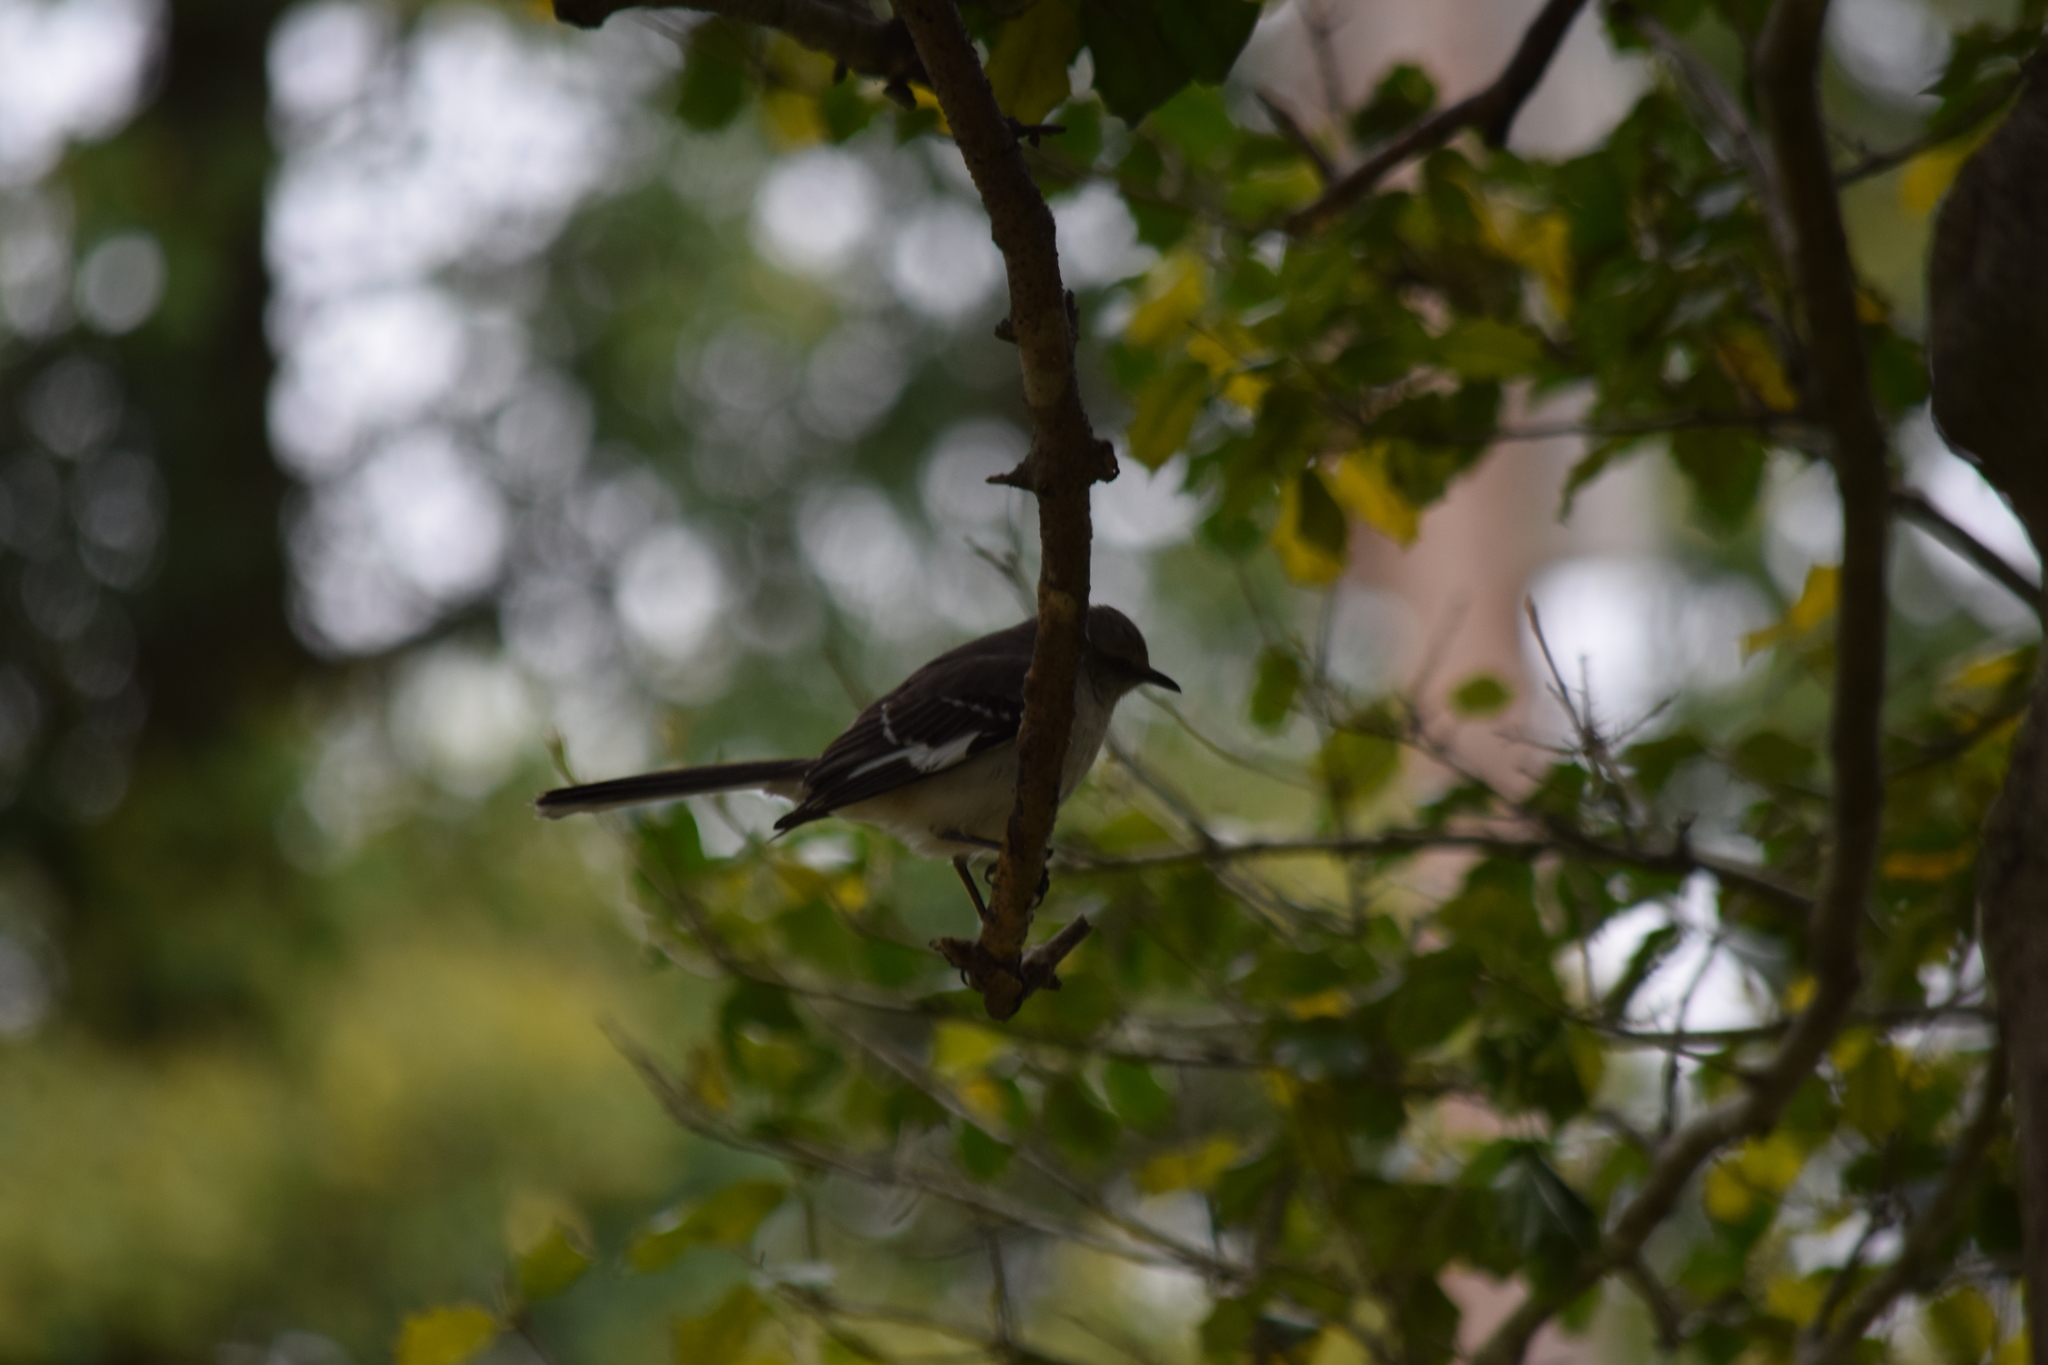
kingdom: Animalia
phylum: Chordata
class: Aves
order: Passeriformes
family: Mimidae
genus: Mimus
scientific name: Mimus polyglottos
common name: Northern mockingbird
